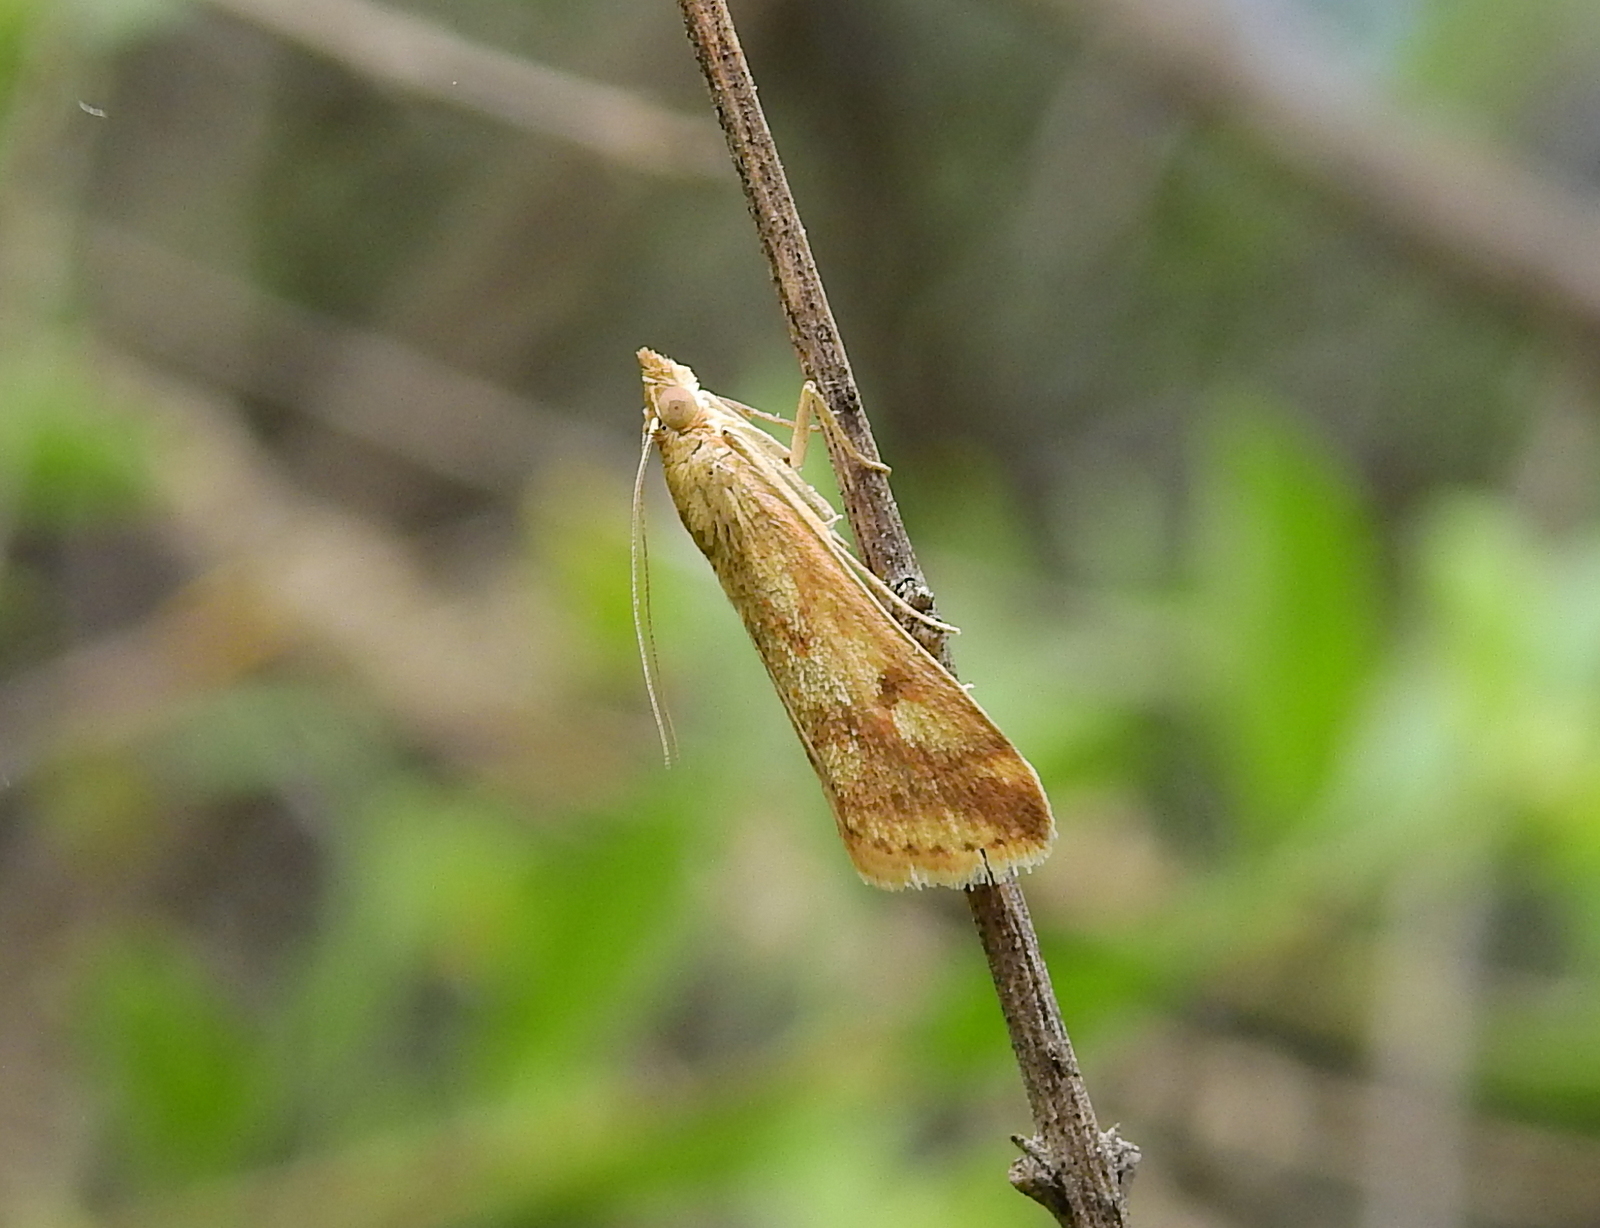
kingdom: Animalia
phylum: Arthropoda
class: Insecta
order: Lepidoptera
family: Crambidae
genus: Achyra
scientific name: Achyra bifidalis
